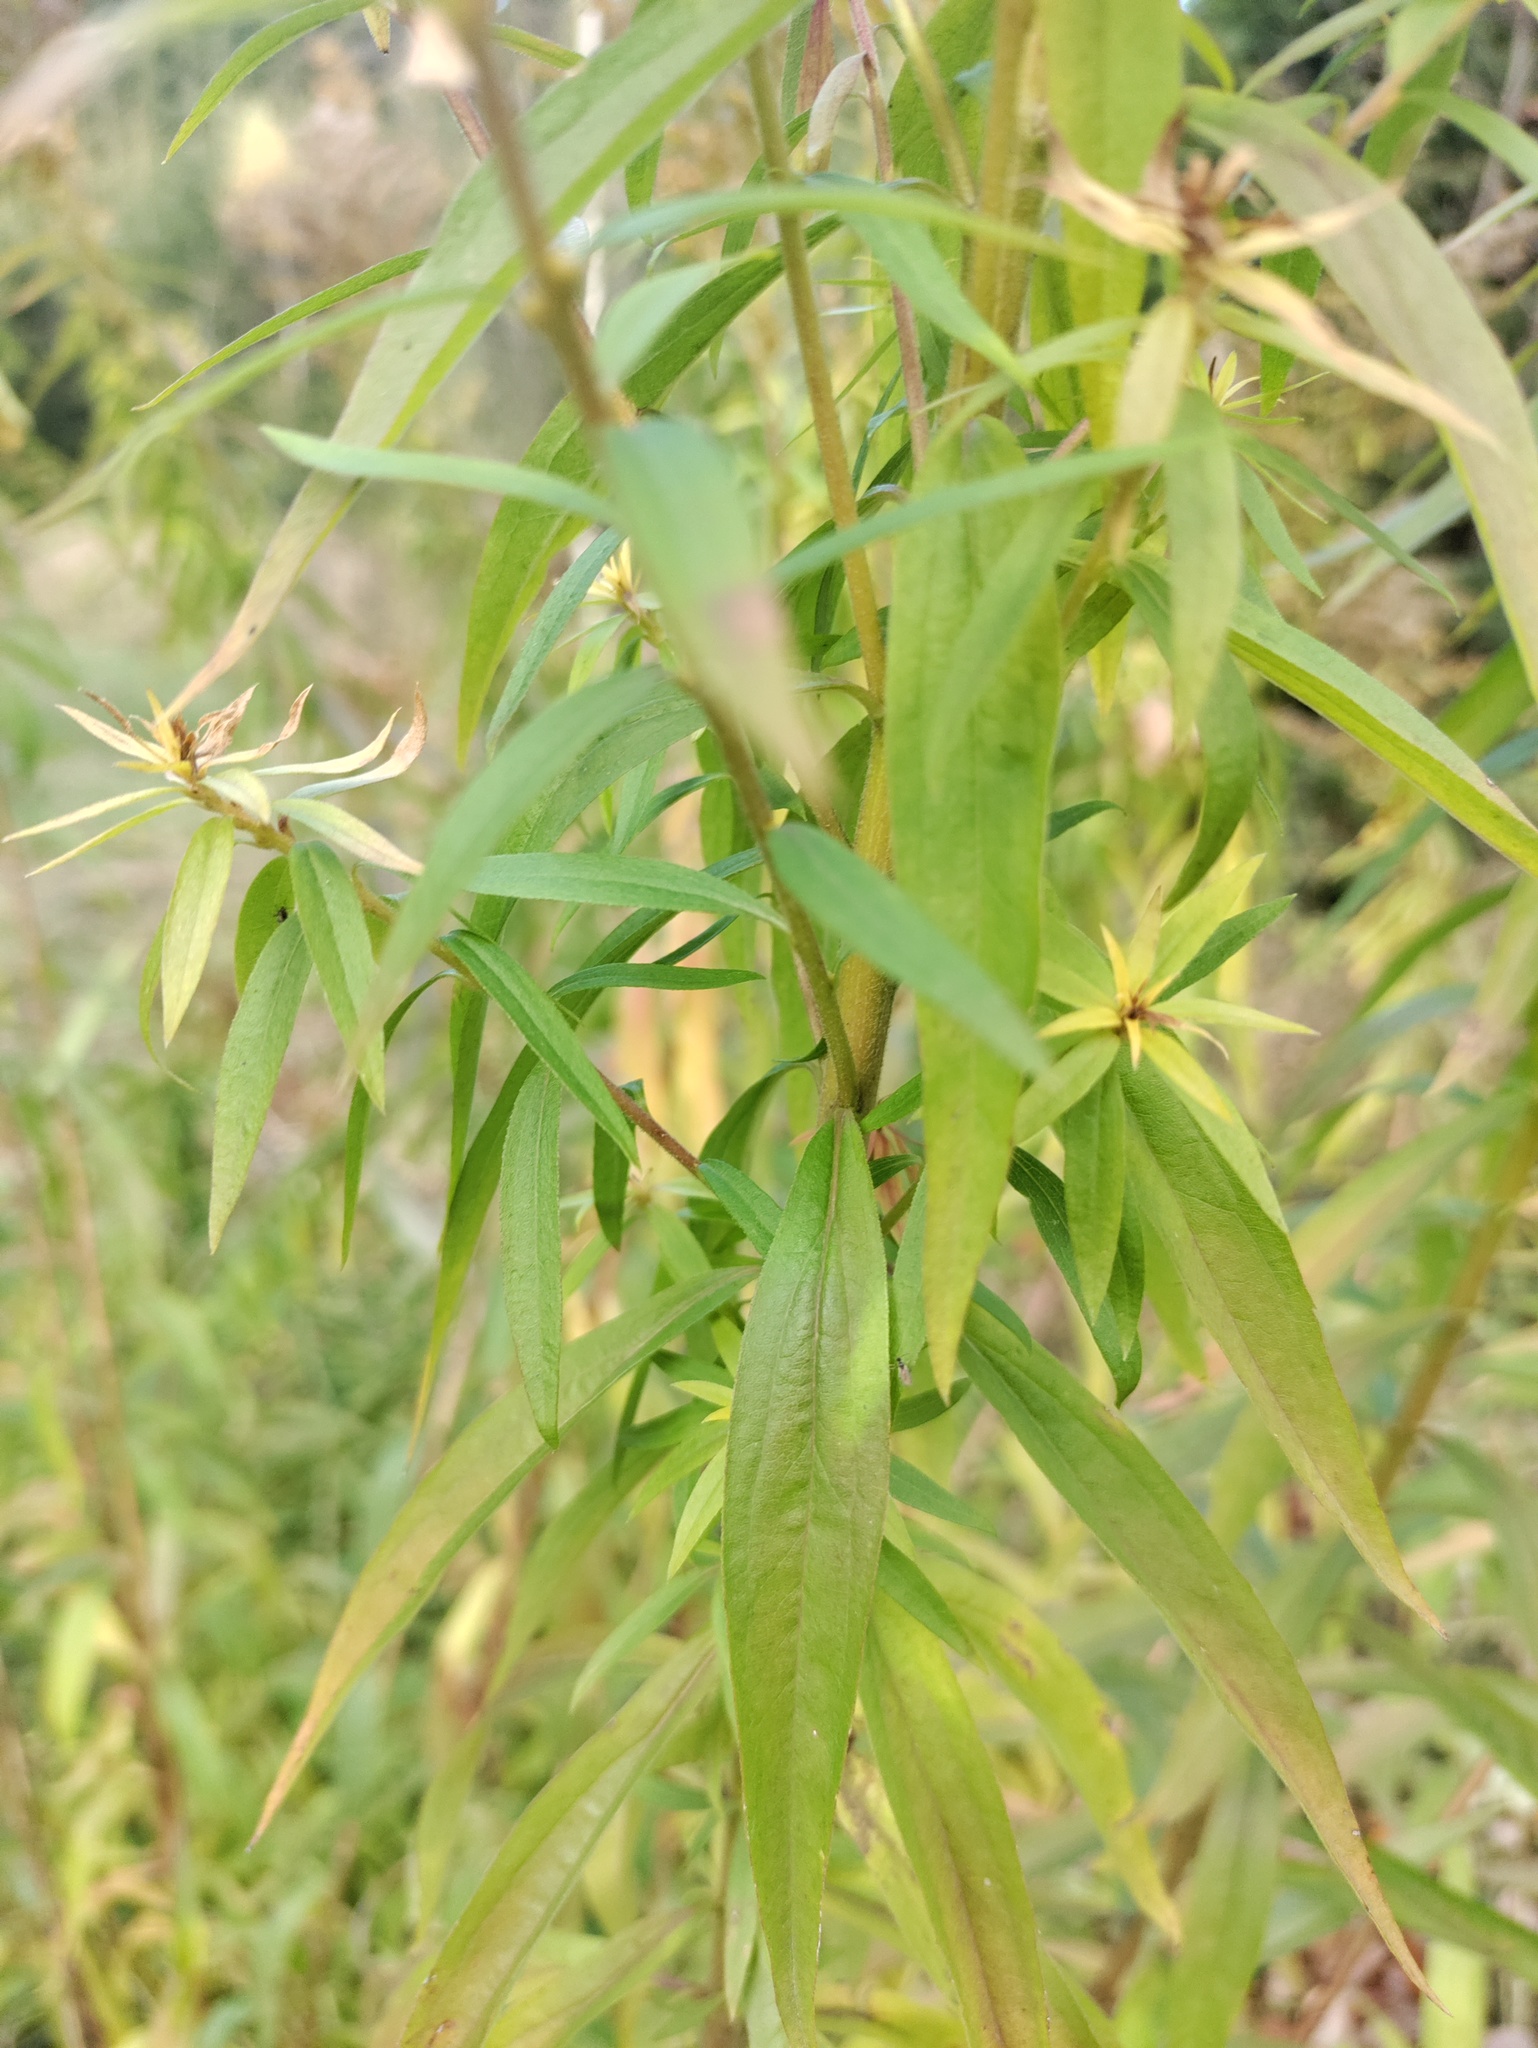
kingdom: Plantae
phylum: Tracheophyta
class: Magnoliopsida
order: Asterales
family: Asteraceae
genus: Solidago
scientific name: Solidago canadensis
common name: Canada goldenrod
